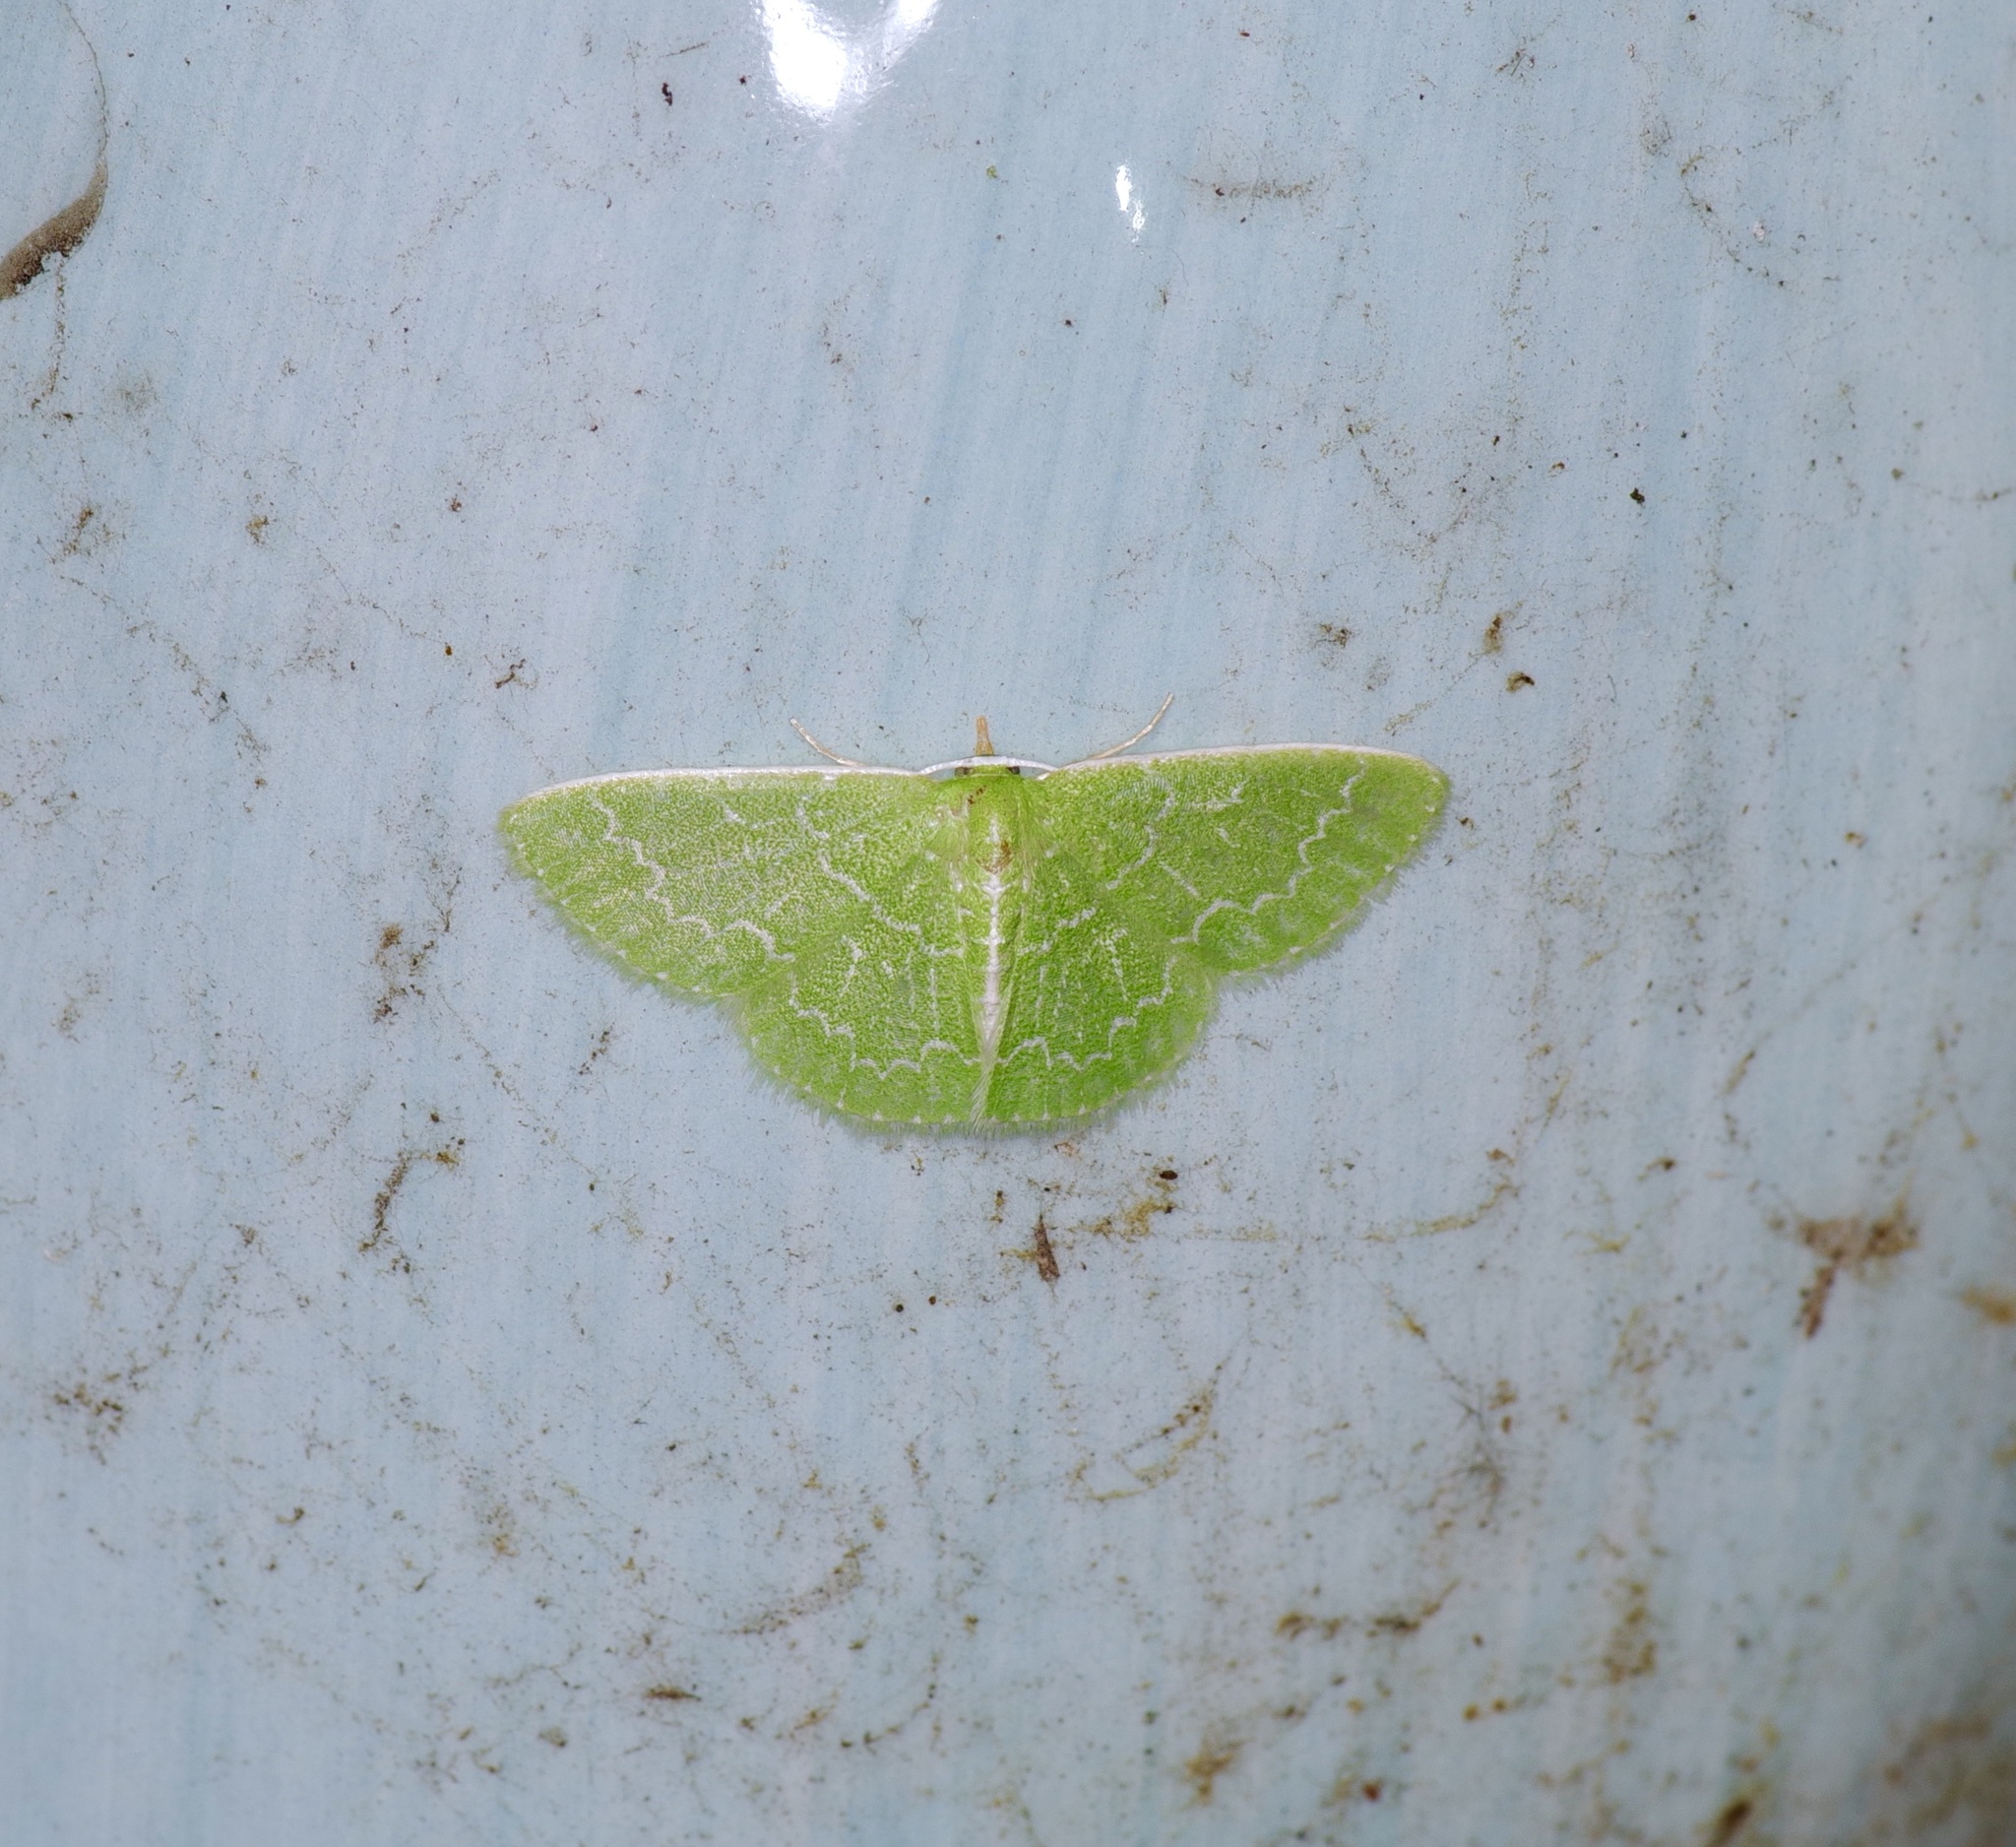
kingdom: Animalia
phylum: Arthropoda
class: Insecta
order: Lepidoptera
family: Geometridae
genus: Synchlora
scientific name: Synchlora frondaria
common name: Southern emerald
